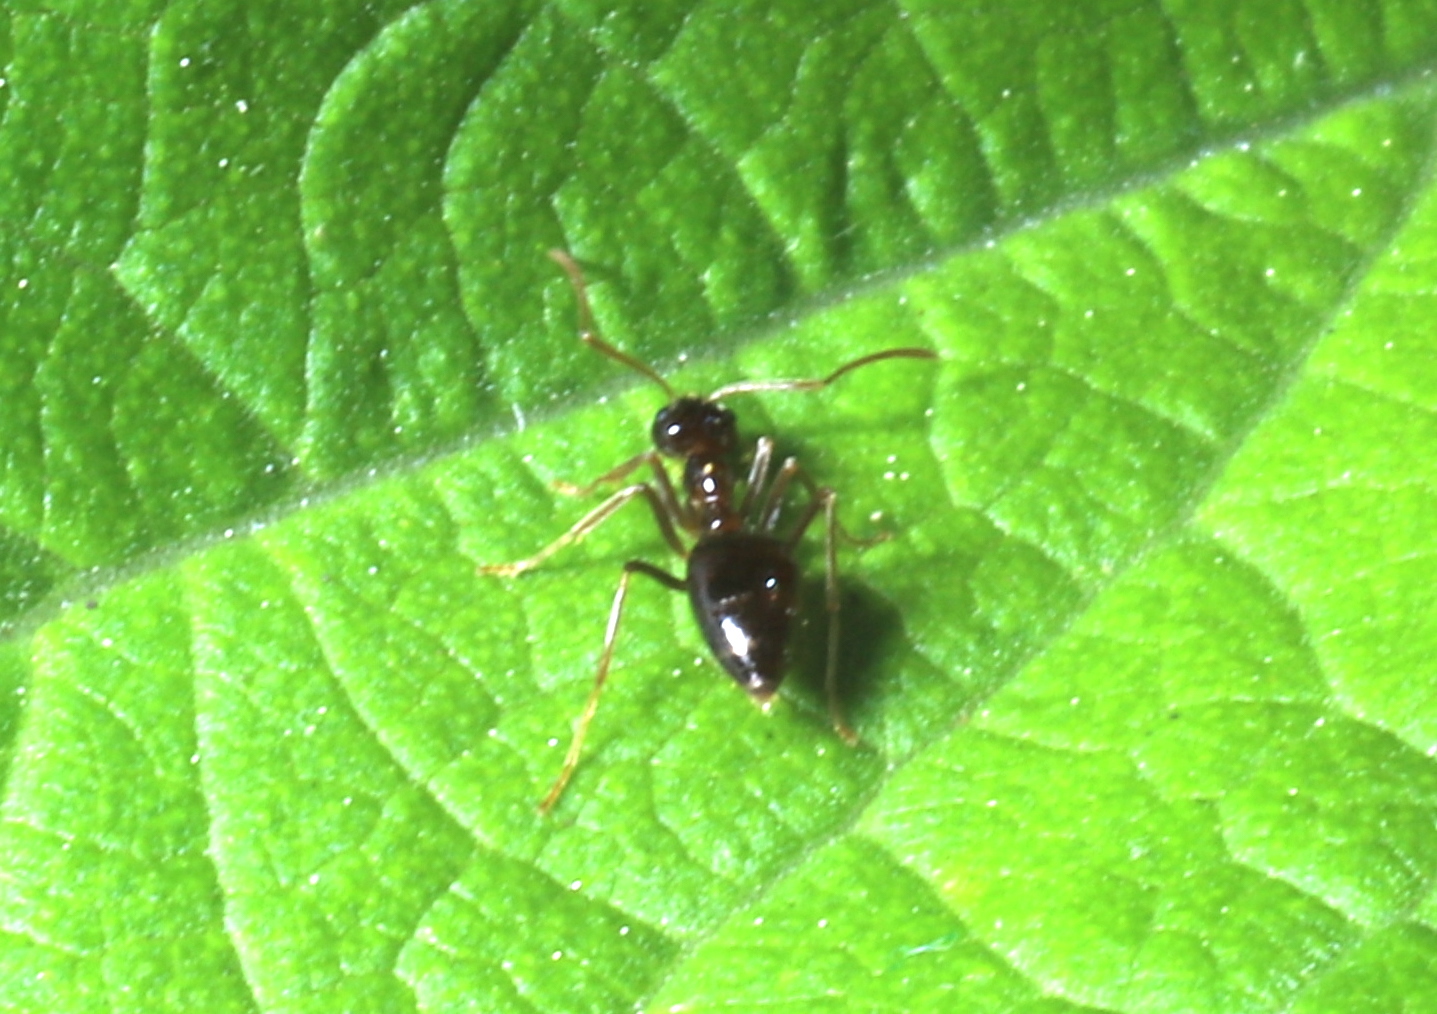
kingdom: Animalia
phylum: Arthropoda
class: Insecta
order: Hymenoptera
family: Formicidae
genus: Prenolepis
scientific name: Prenolepis imparis
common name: Small honey ant
